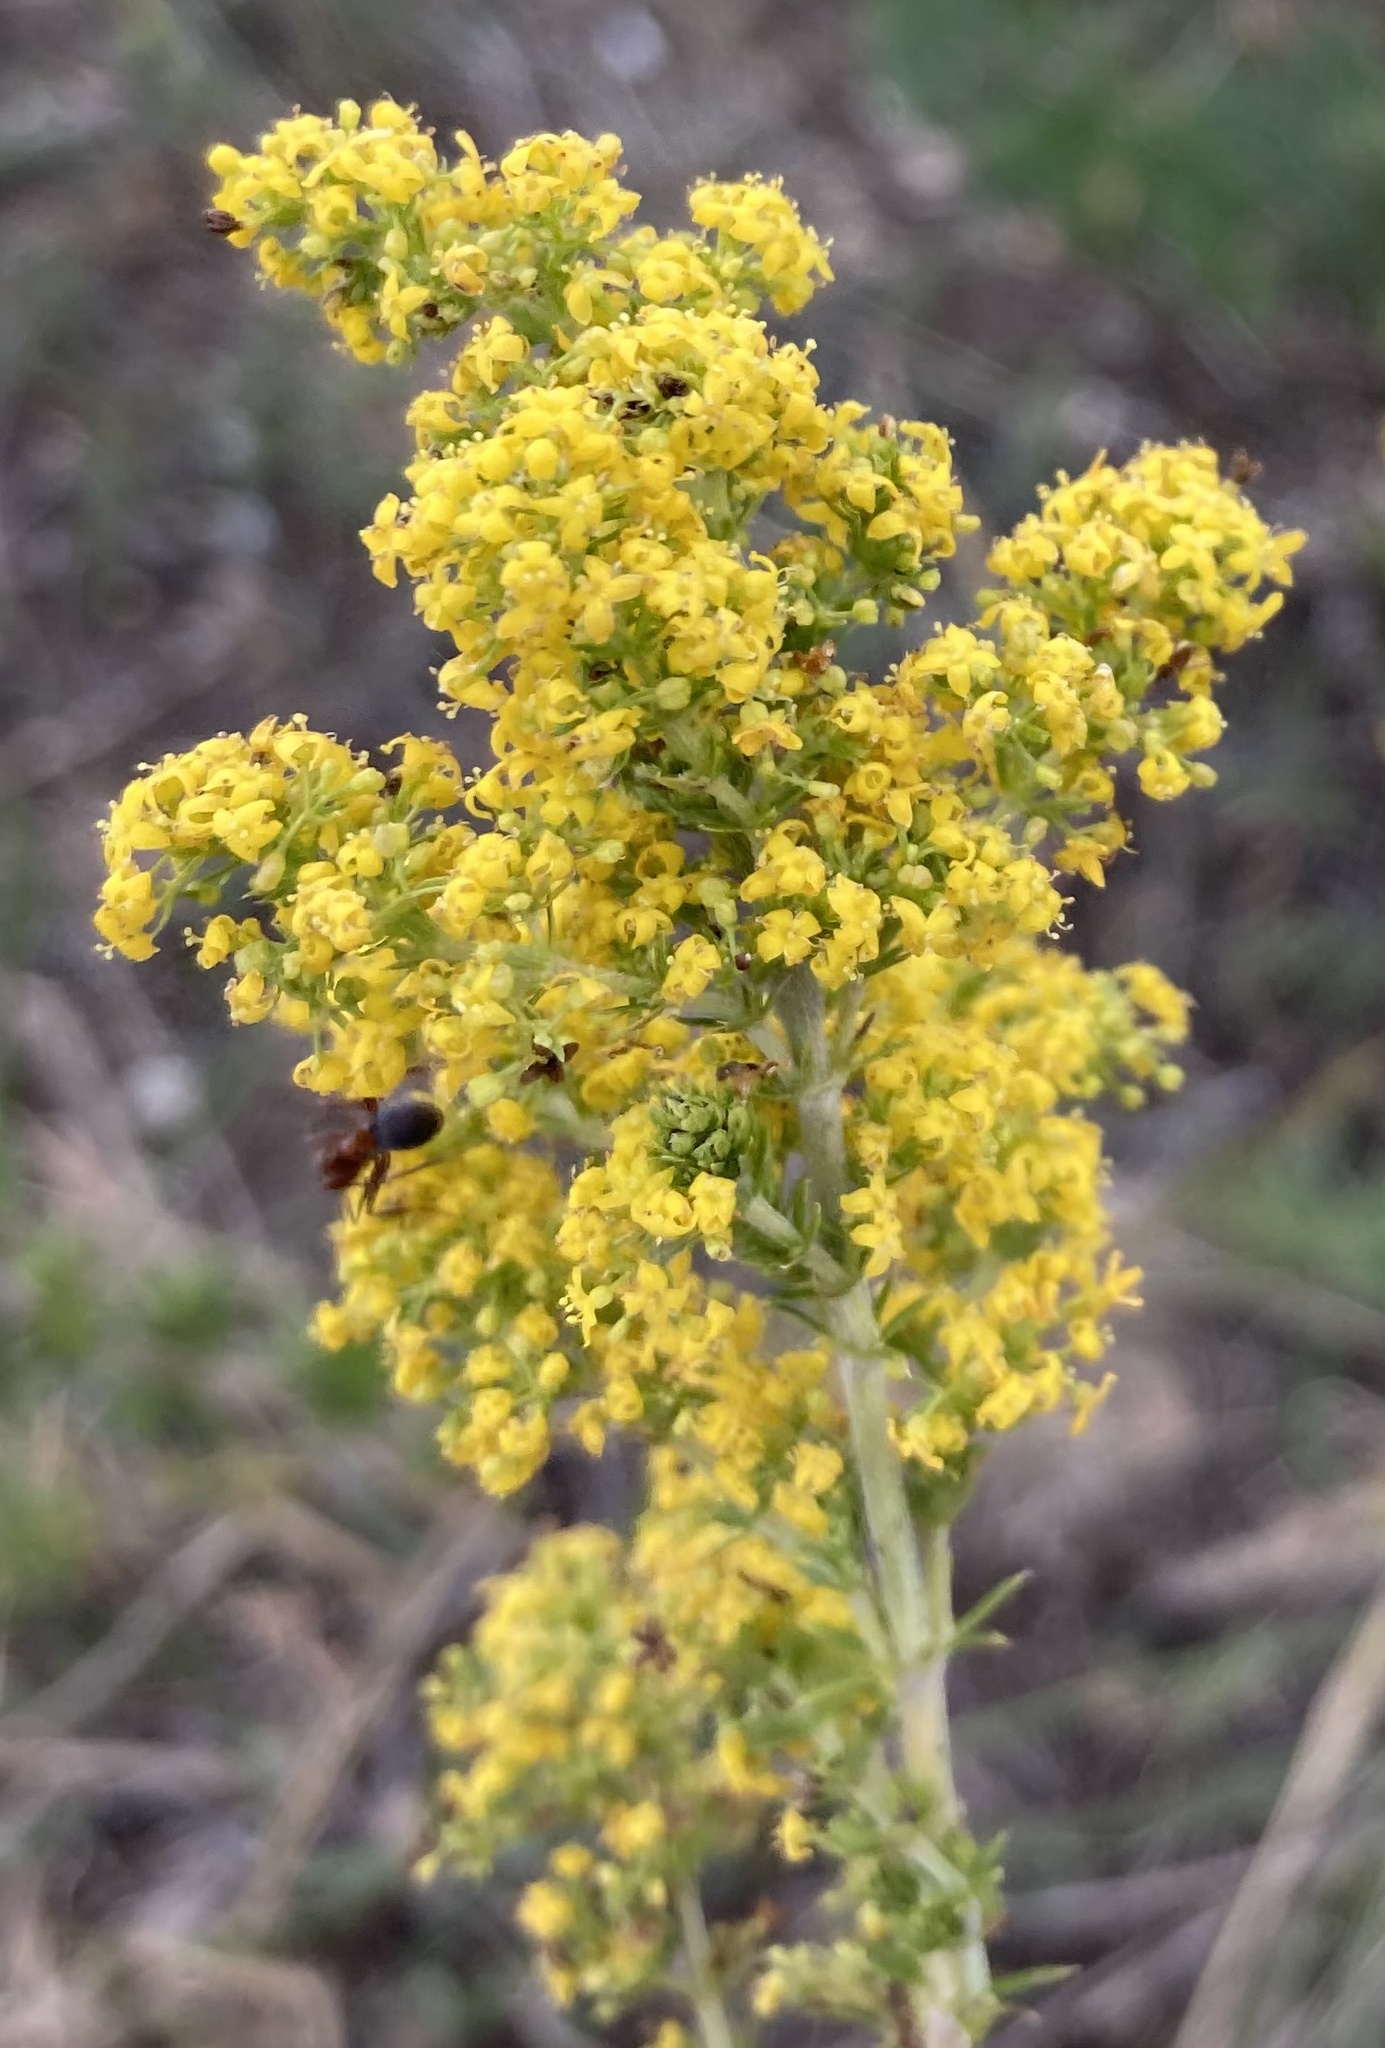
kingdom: Plantae
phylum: Tracheophyta
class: Magnoliopsida
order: Gentianales
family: Rubiaceae
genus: Galium
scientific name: Galium verum
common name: Lady's bedstraw
